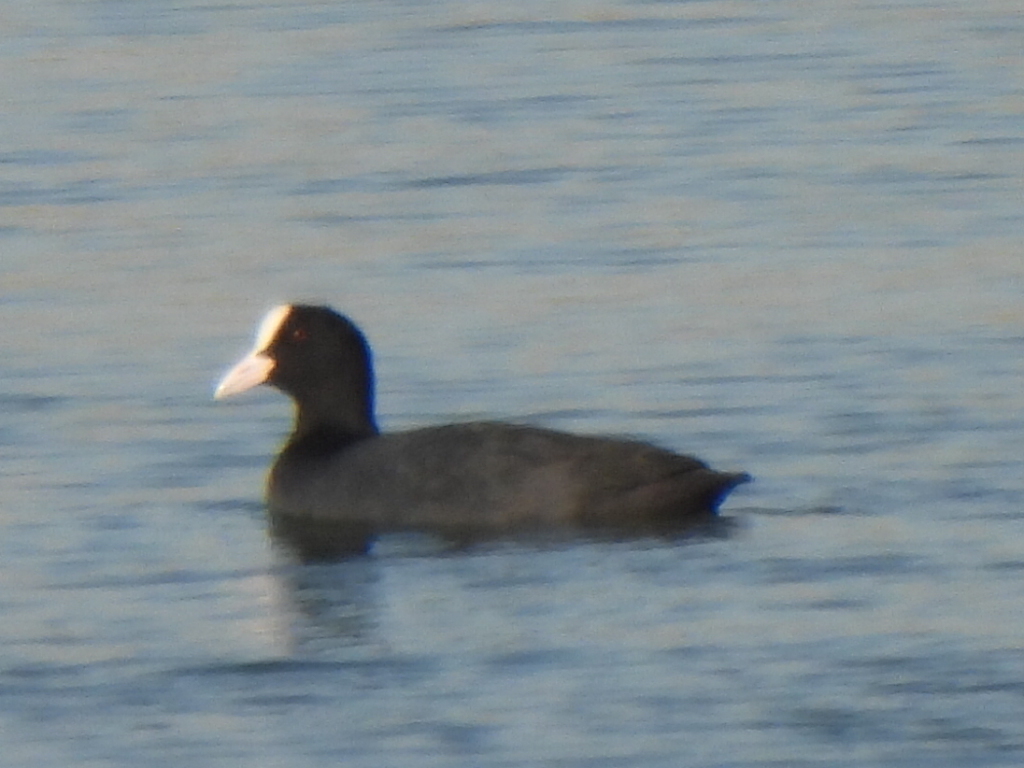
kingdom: Animalia
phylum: Chordata
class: Aves
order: Gruiformes
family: Rallidae
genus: Fulica
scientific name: Fulica atra
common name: Eurasian coot
